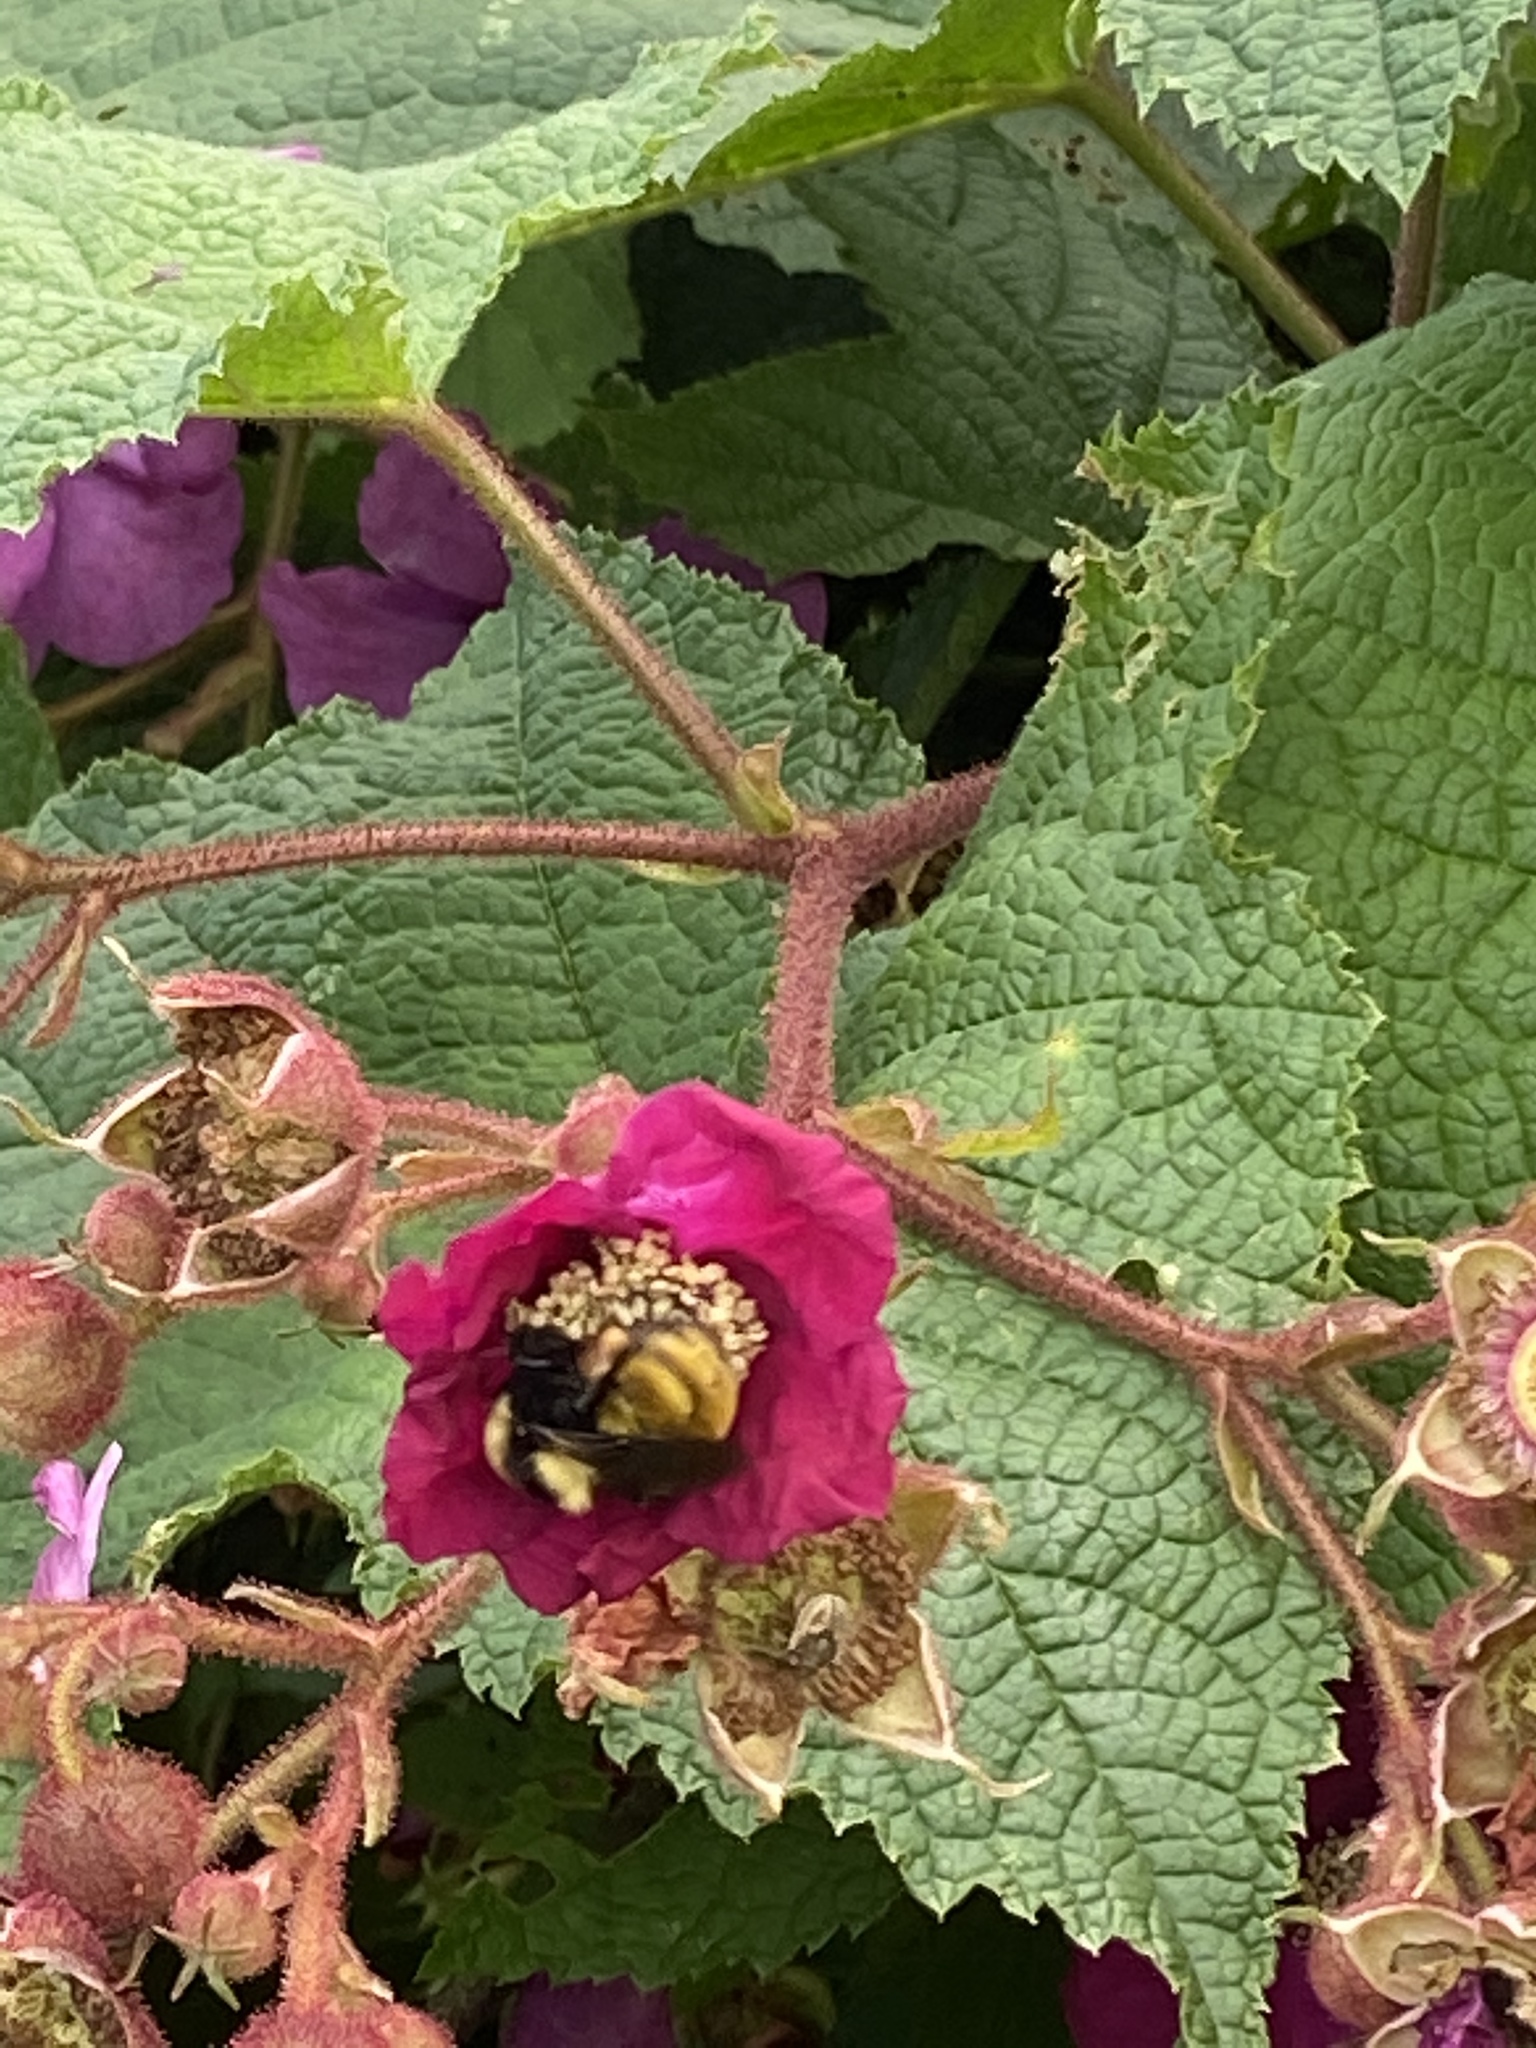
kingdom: Animalia
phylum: Arthropoda
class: Insecta
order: Hymenoptera
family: Apidae
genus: Bombus
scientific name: Bombus borealis
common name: Northern amber bumble bee
